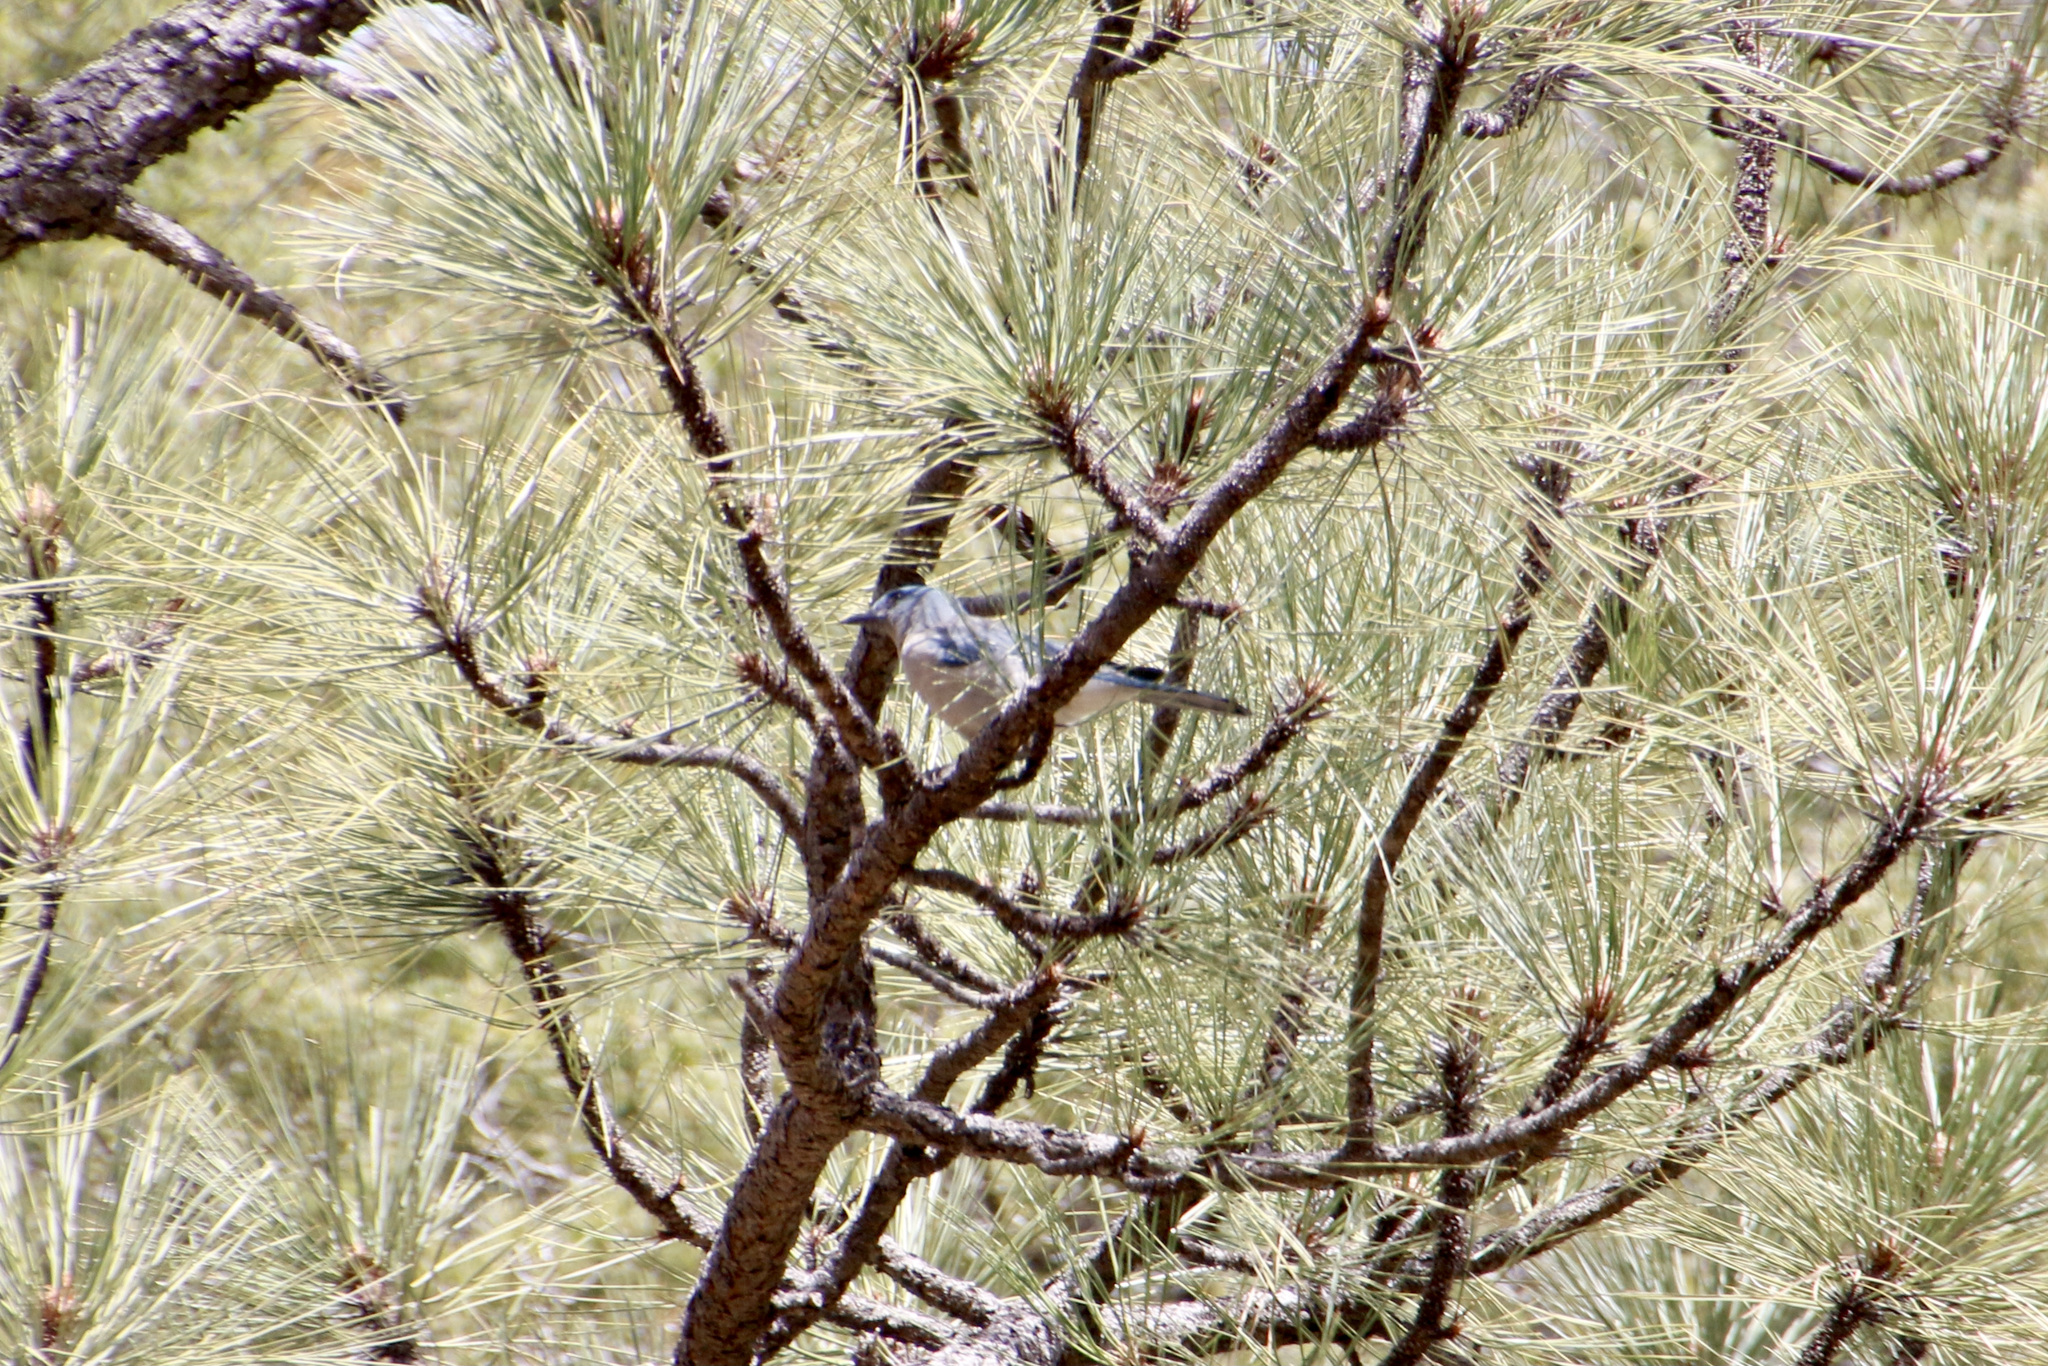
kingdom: Animalia
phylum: Chordata
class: Aves
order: Passeriformes
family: Corvidae
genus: Aphelocoma
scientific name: Aphelocoma wollweberi
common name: Mexican jay
